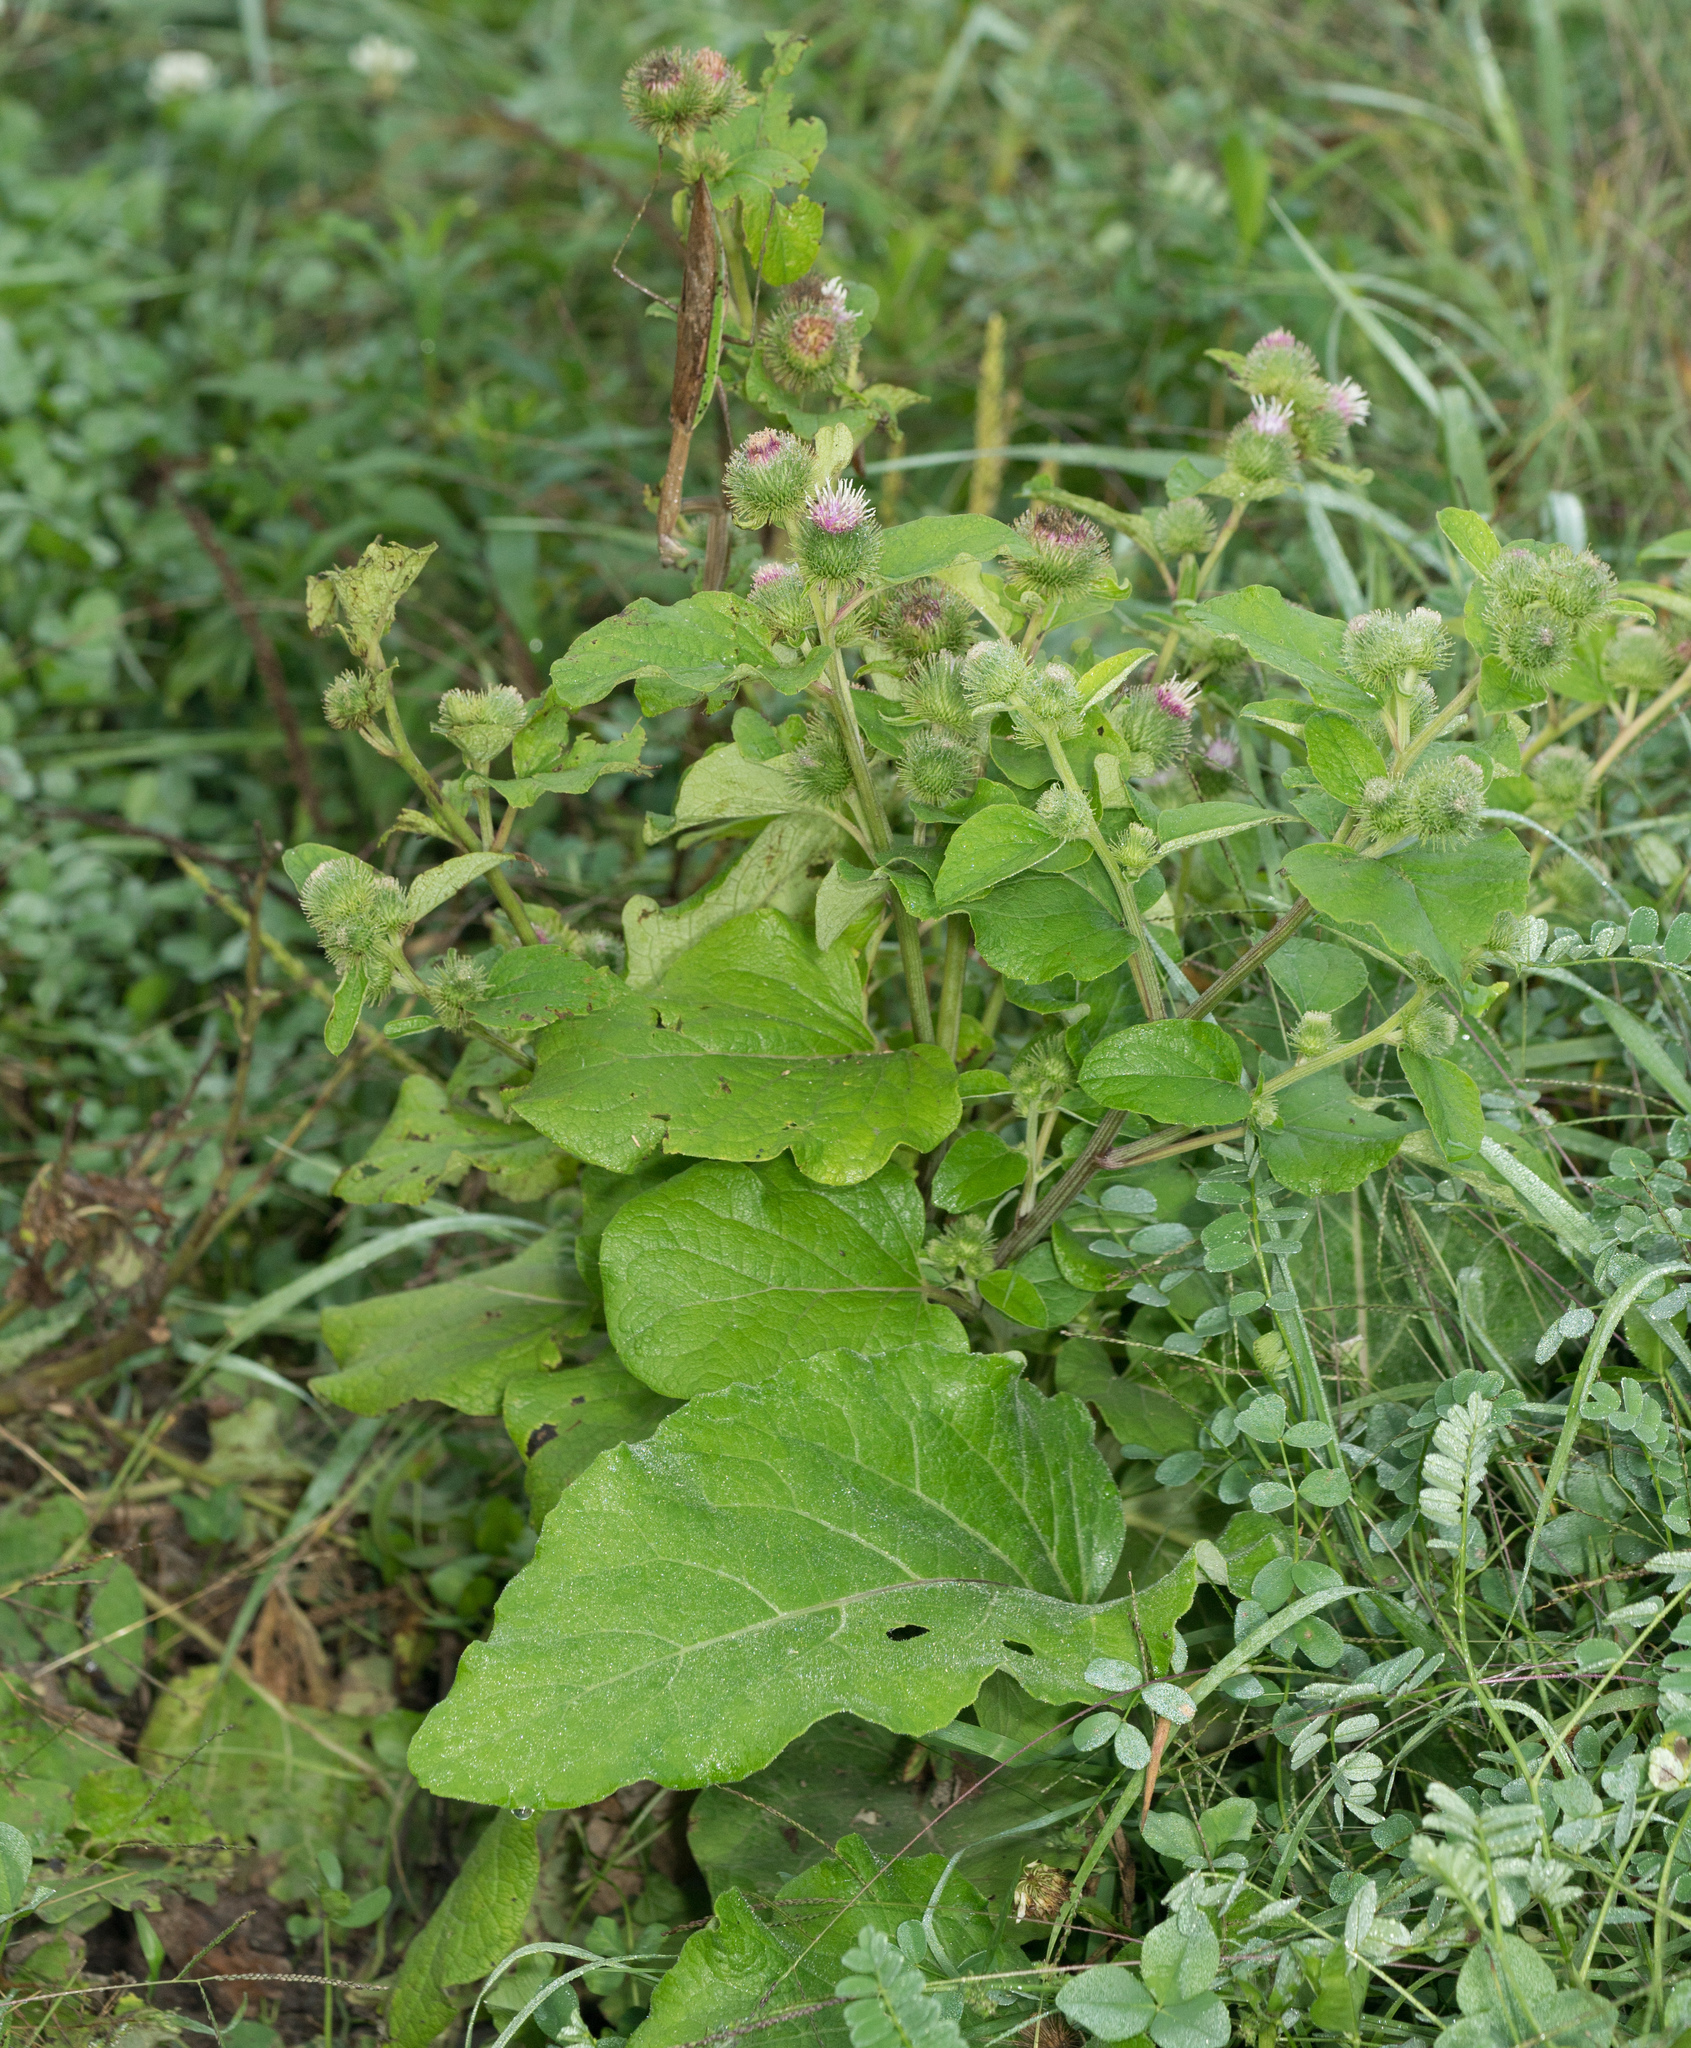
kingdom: Plantae
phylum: Tracheophyta
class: Magnoliopsida
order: Asterales
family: Asteraceae
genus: Arctium
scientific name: Arctium minus
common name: Lesser burdock
